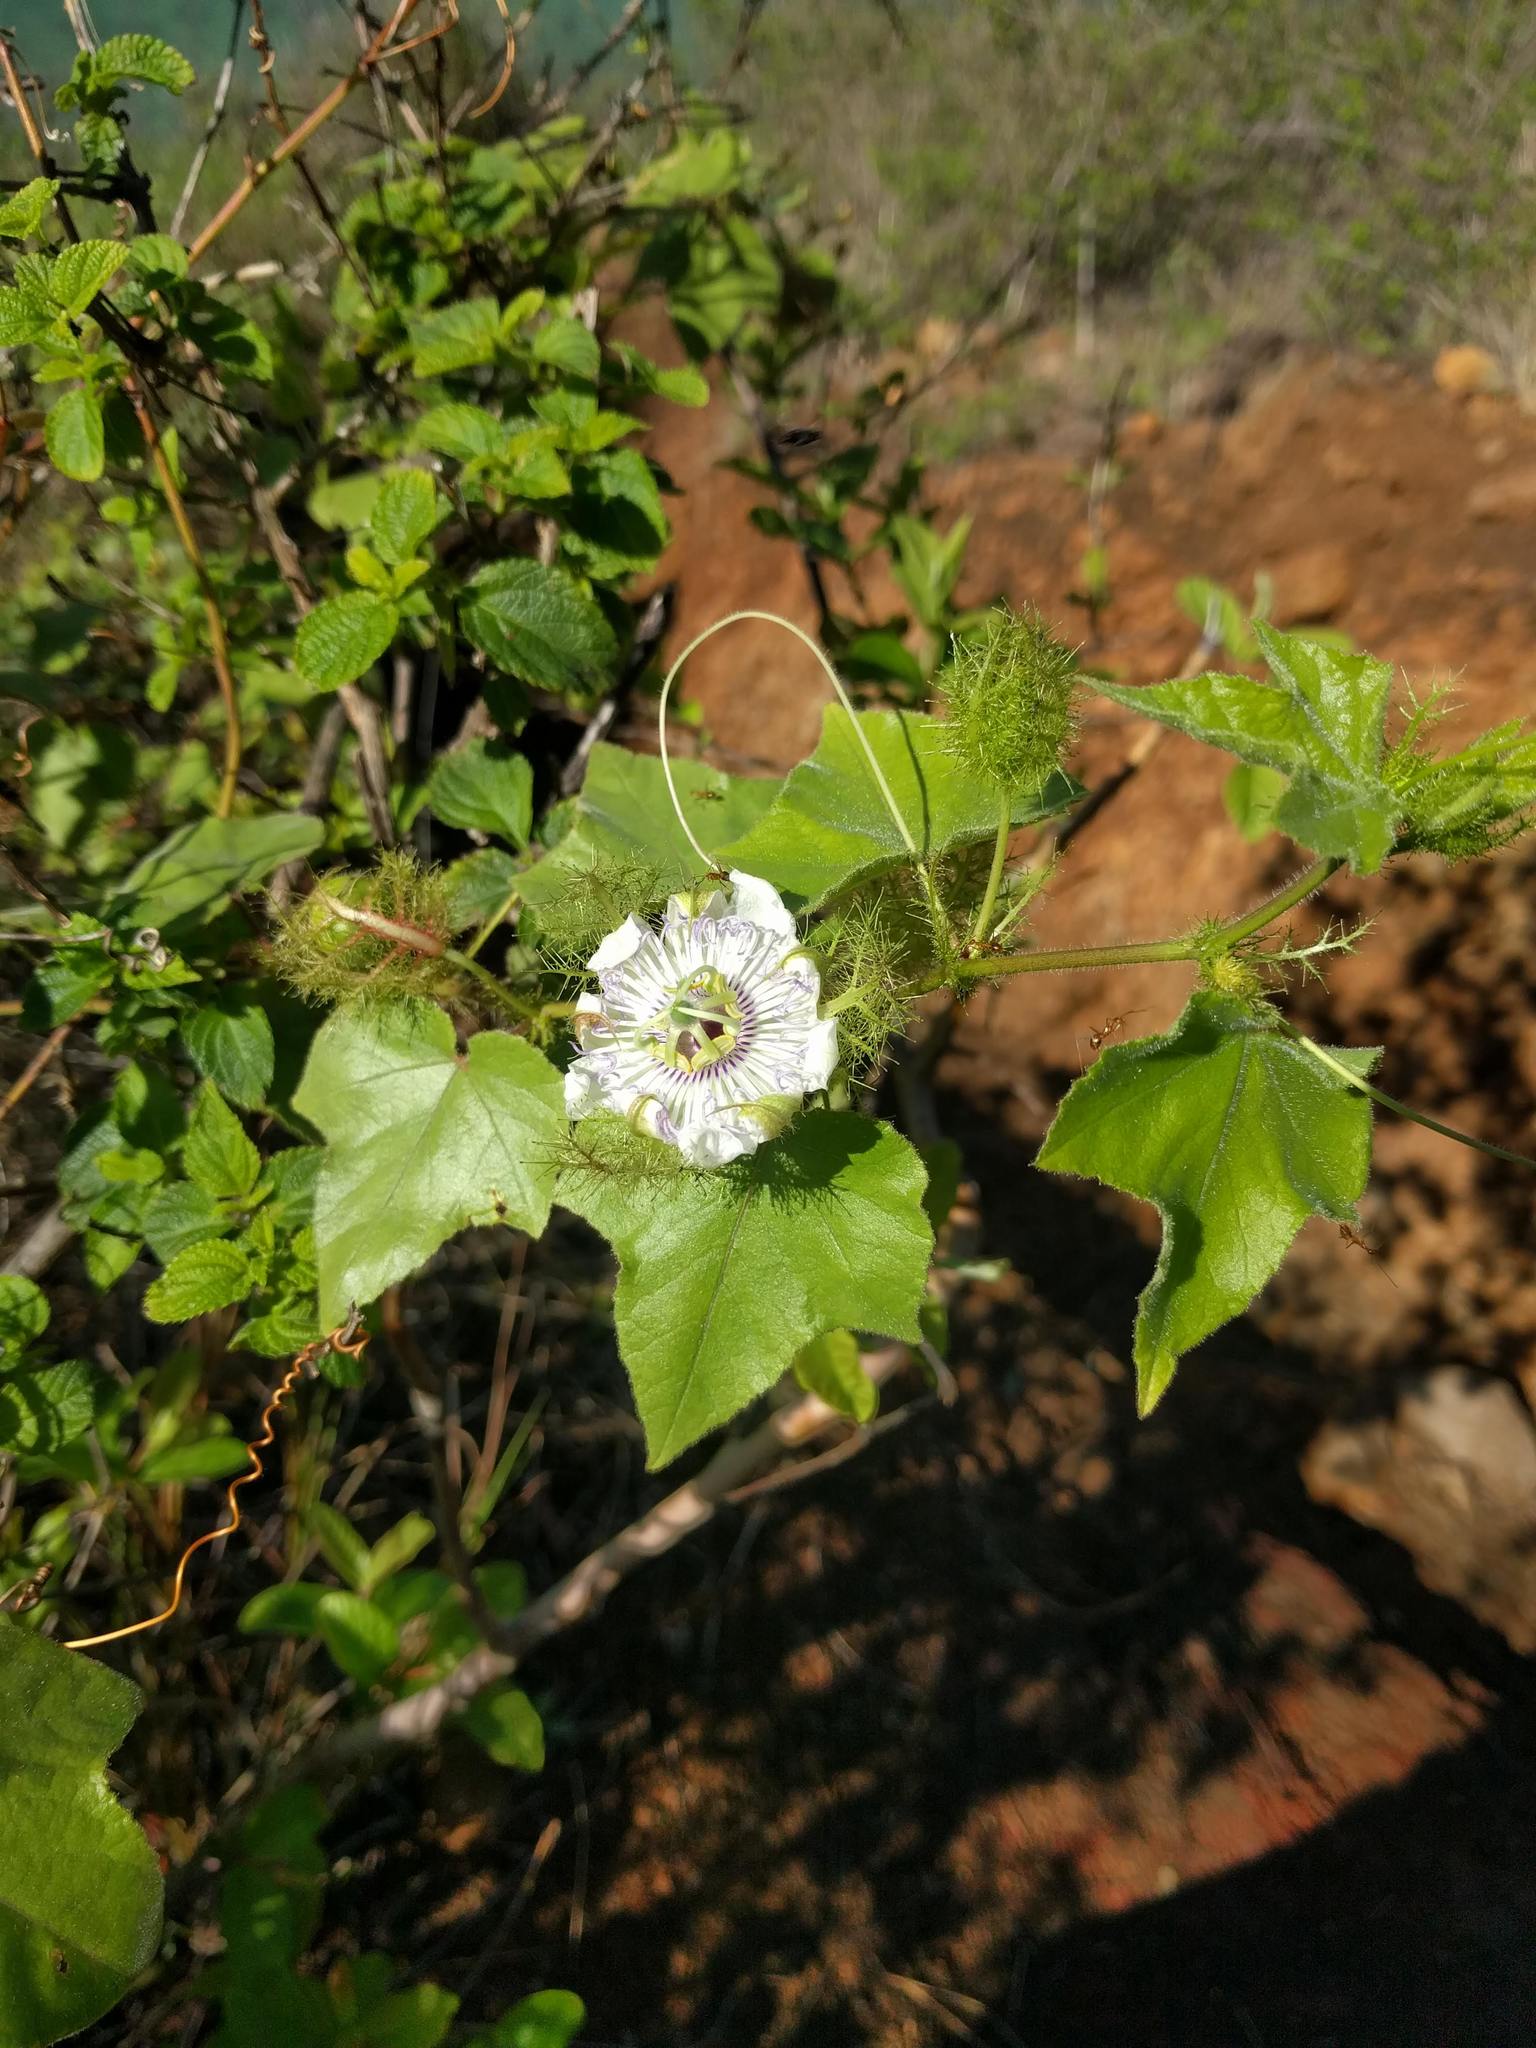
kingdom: Plantae
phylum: Tracheophyta
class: Magnoliopsida
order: Malpighiales
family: Passifloraceae
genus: Passiflora
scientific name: Passiflora foetida
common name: Fetid passionflower
